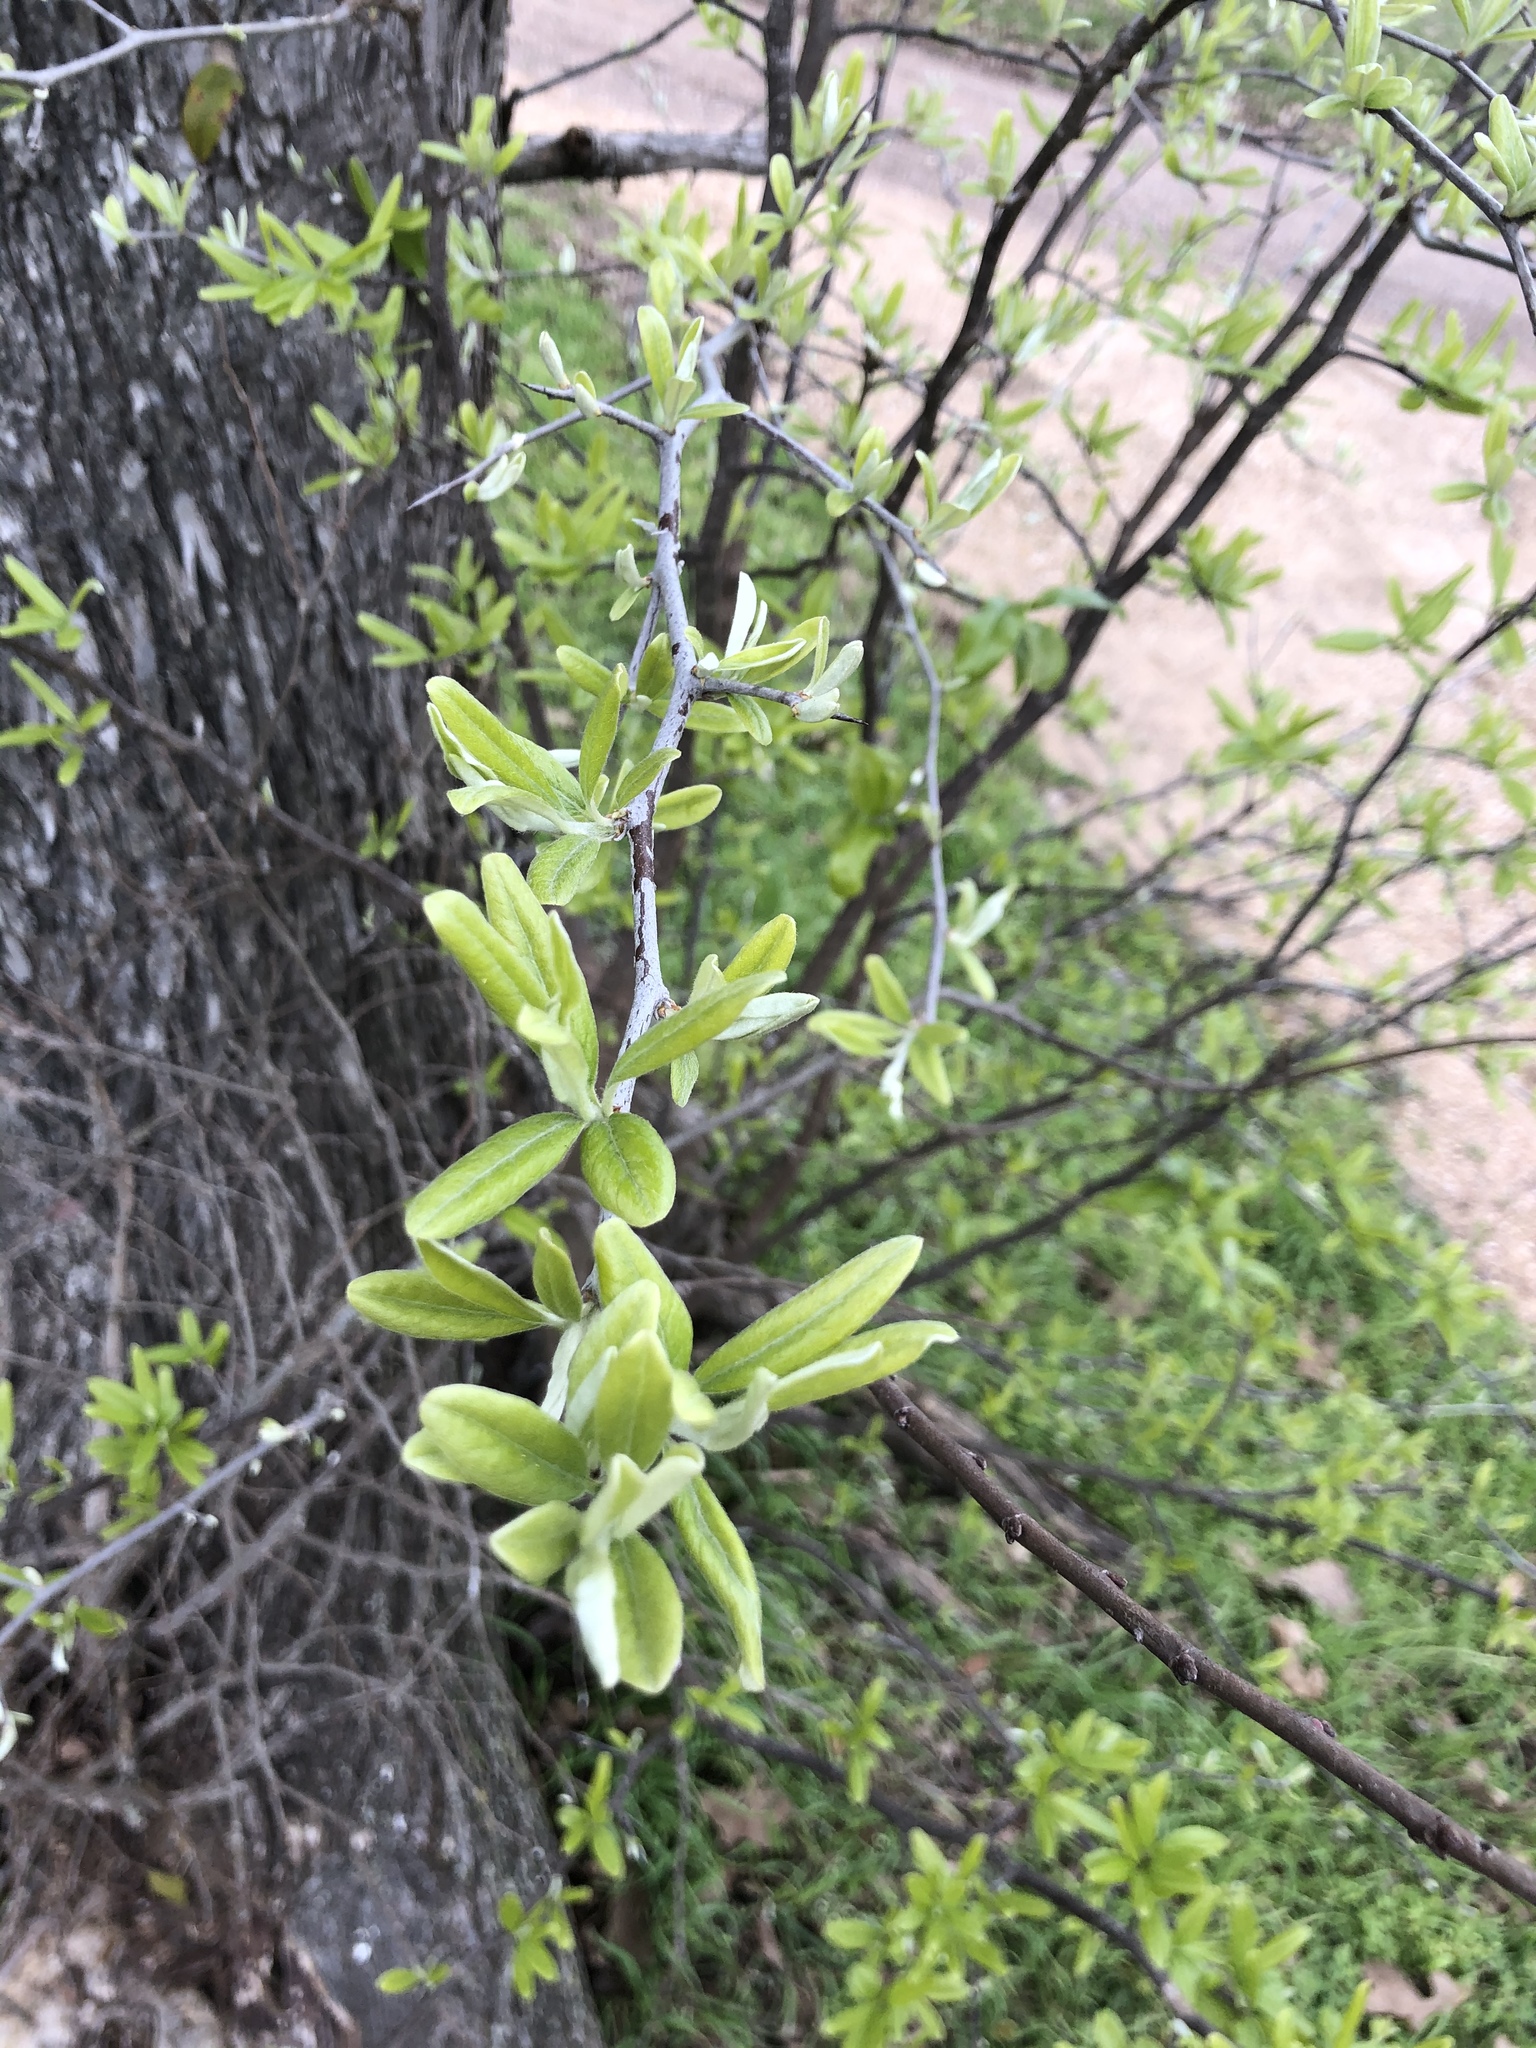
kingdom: Plantae
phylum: Tracheophyta
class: Magnoliopsida
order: Ericales
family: Sapotaceae
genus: Sideroxylon
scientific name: Sideroxylon lanuginosum
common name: Chittamwood
